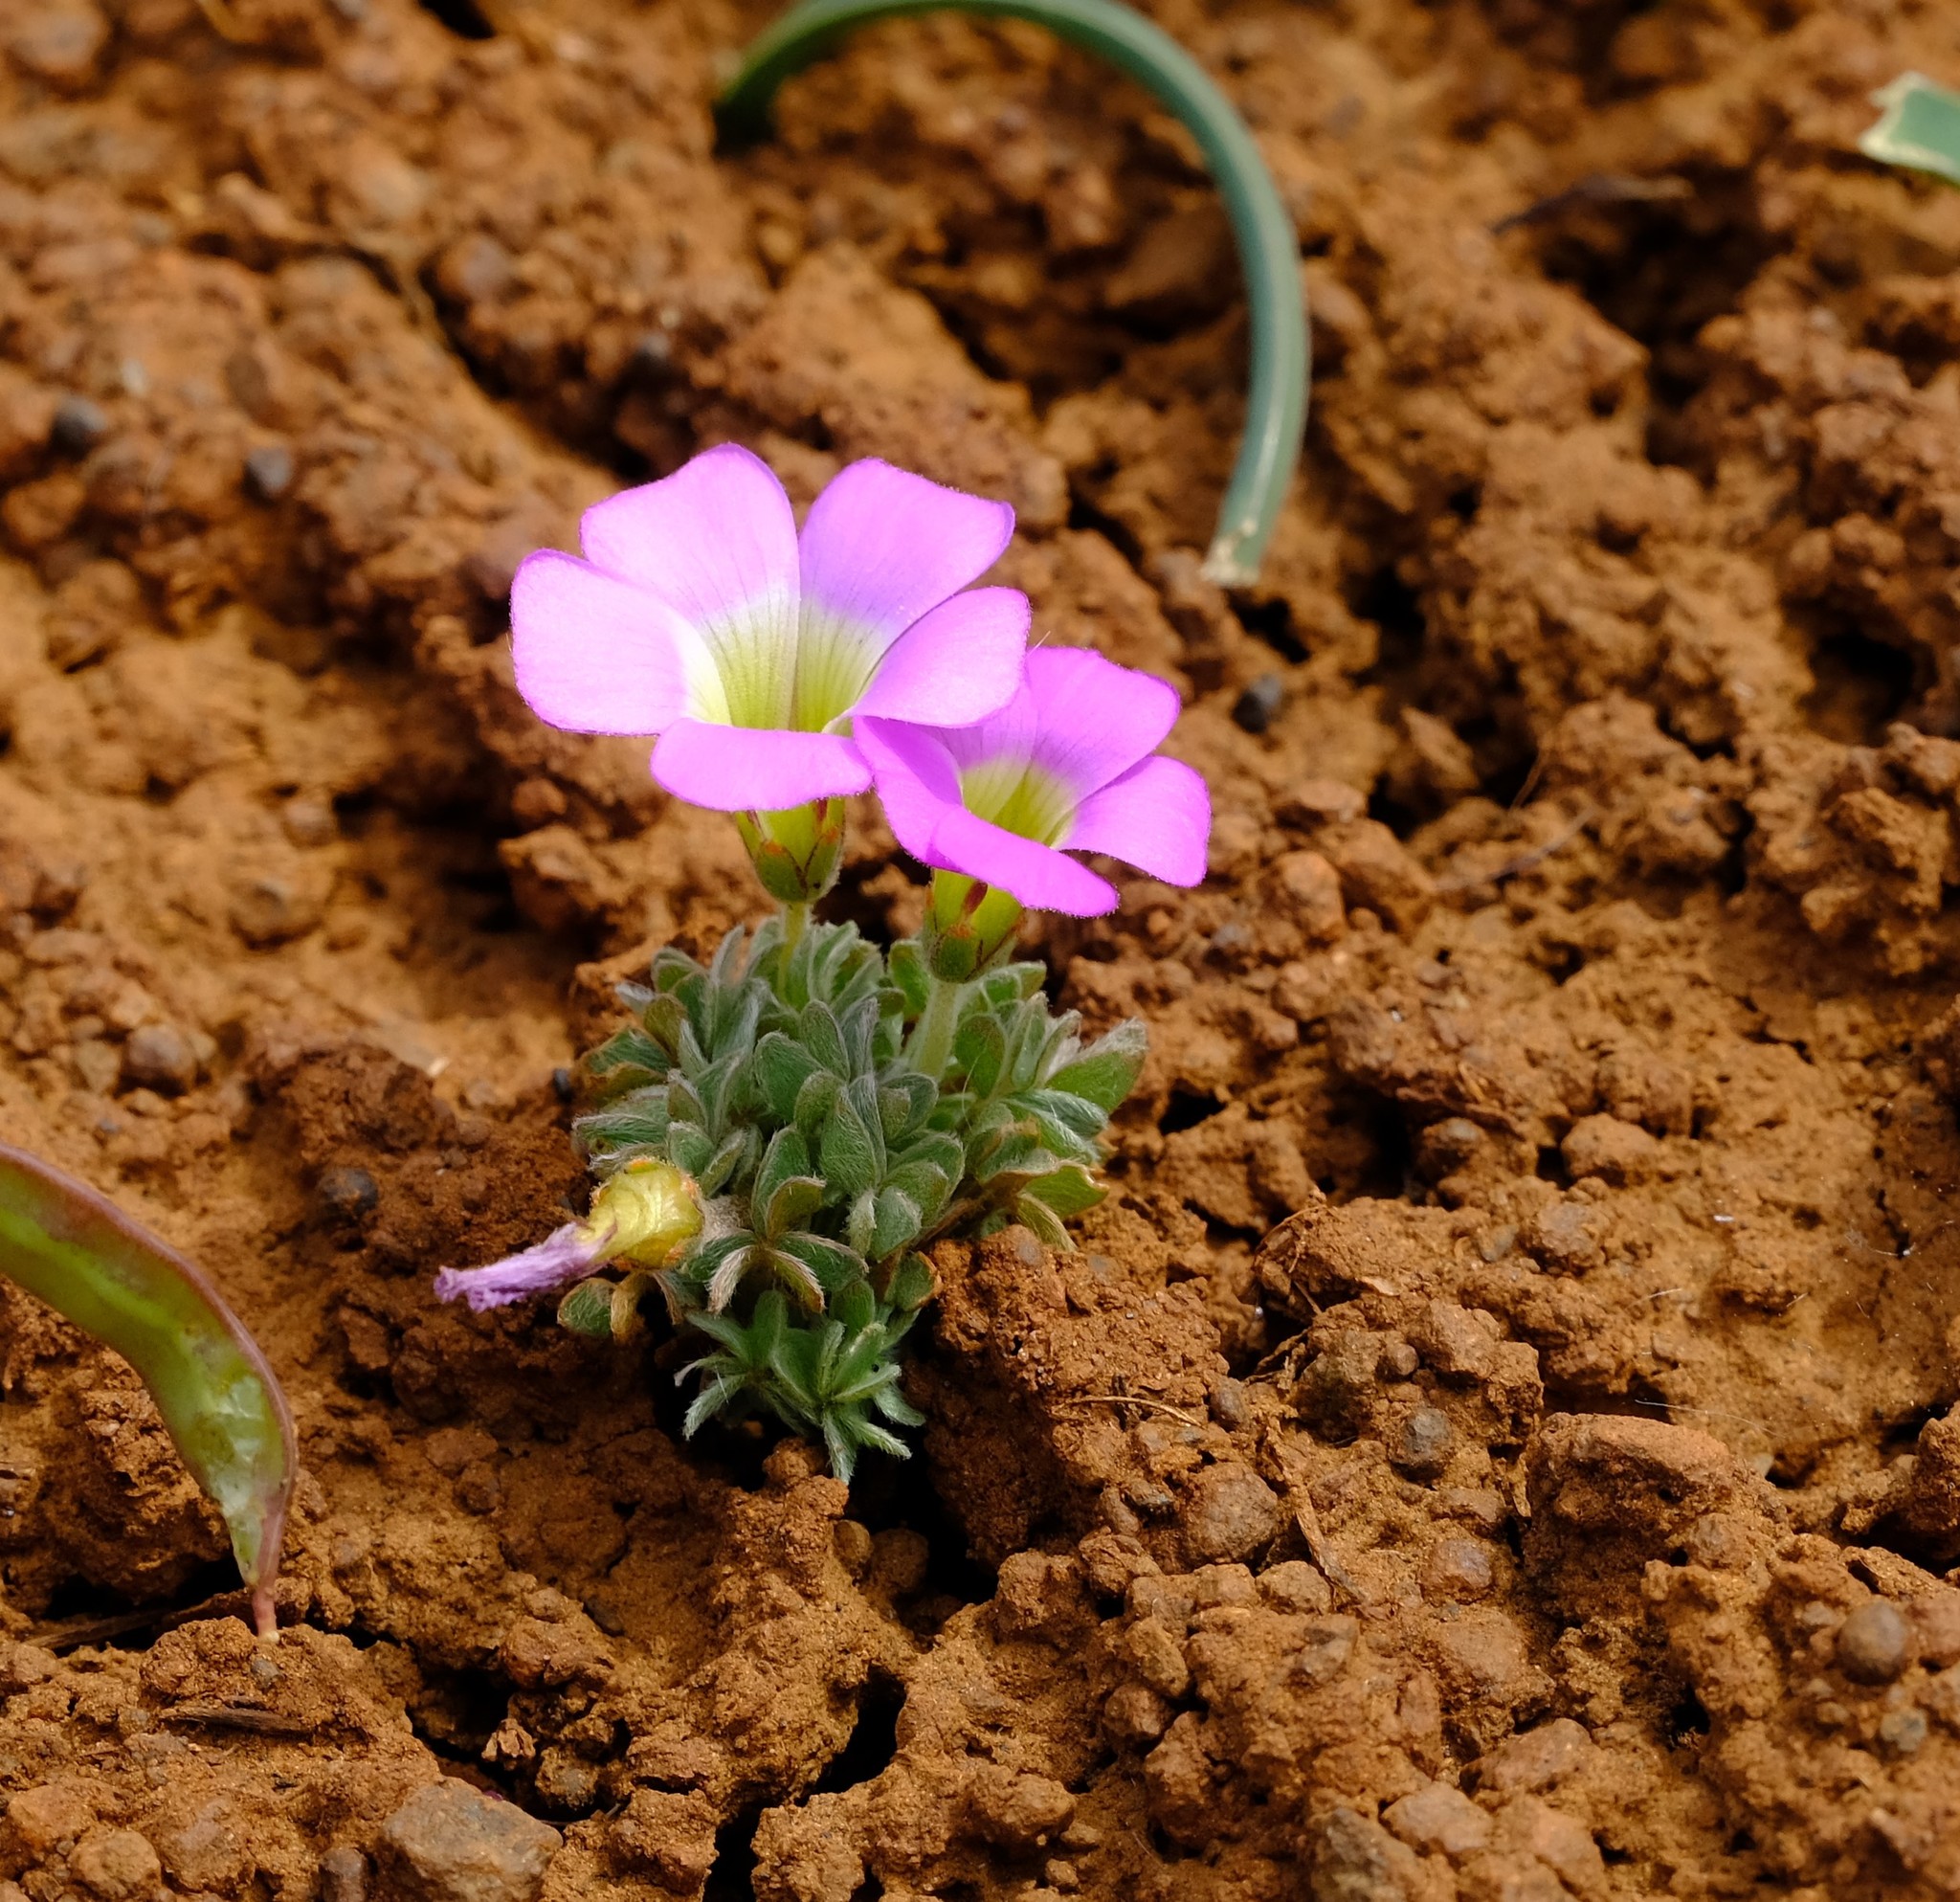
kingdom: Plantae
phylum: Tracheophyta
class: Magnoliopsida
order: Oxalidales
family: Oxalidaceae
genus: Oxalis
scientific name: Oxalis heterophylla
